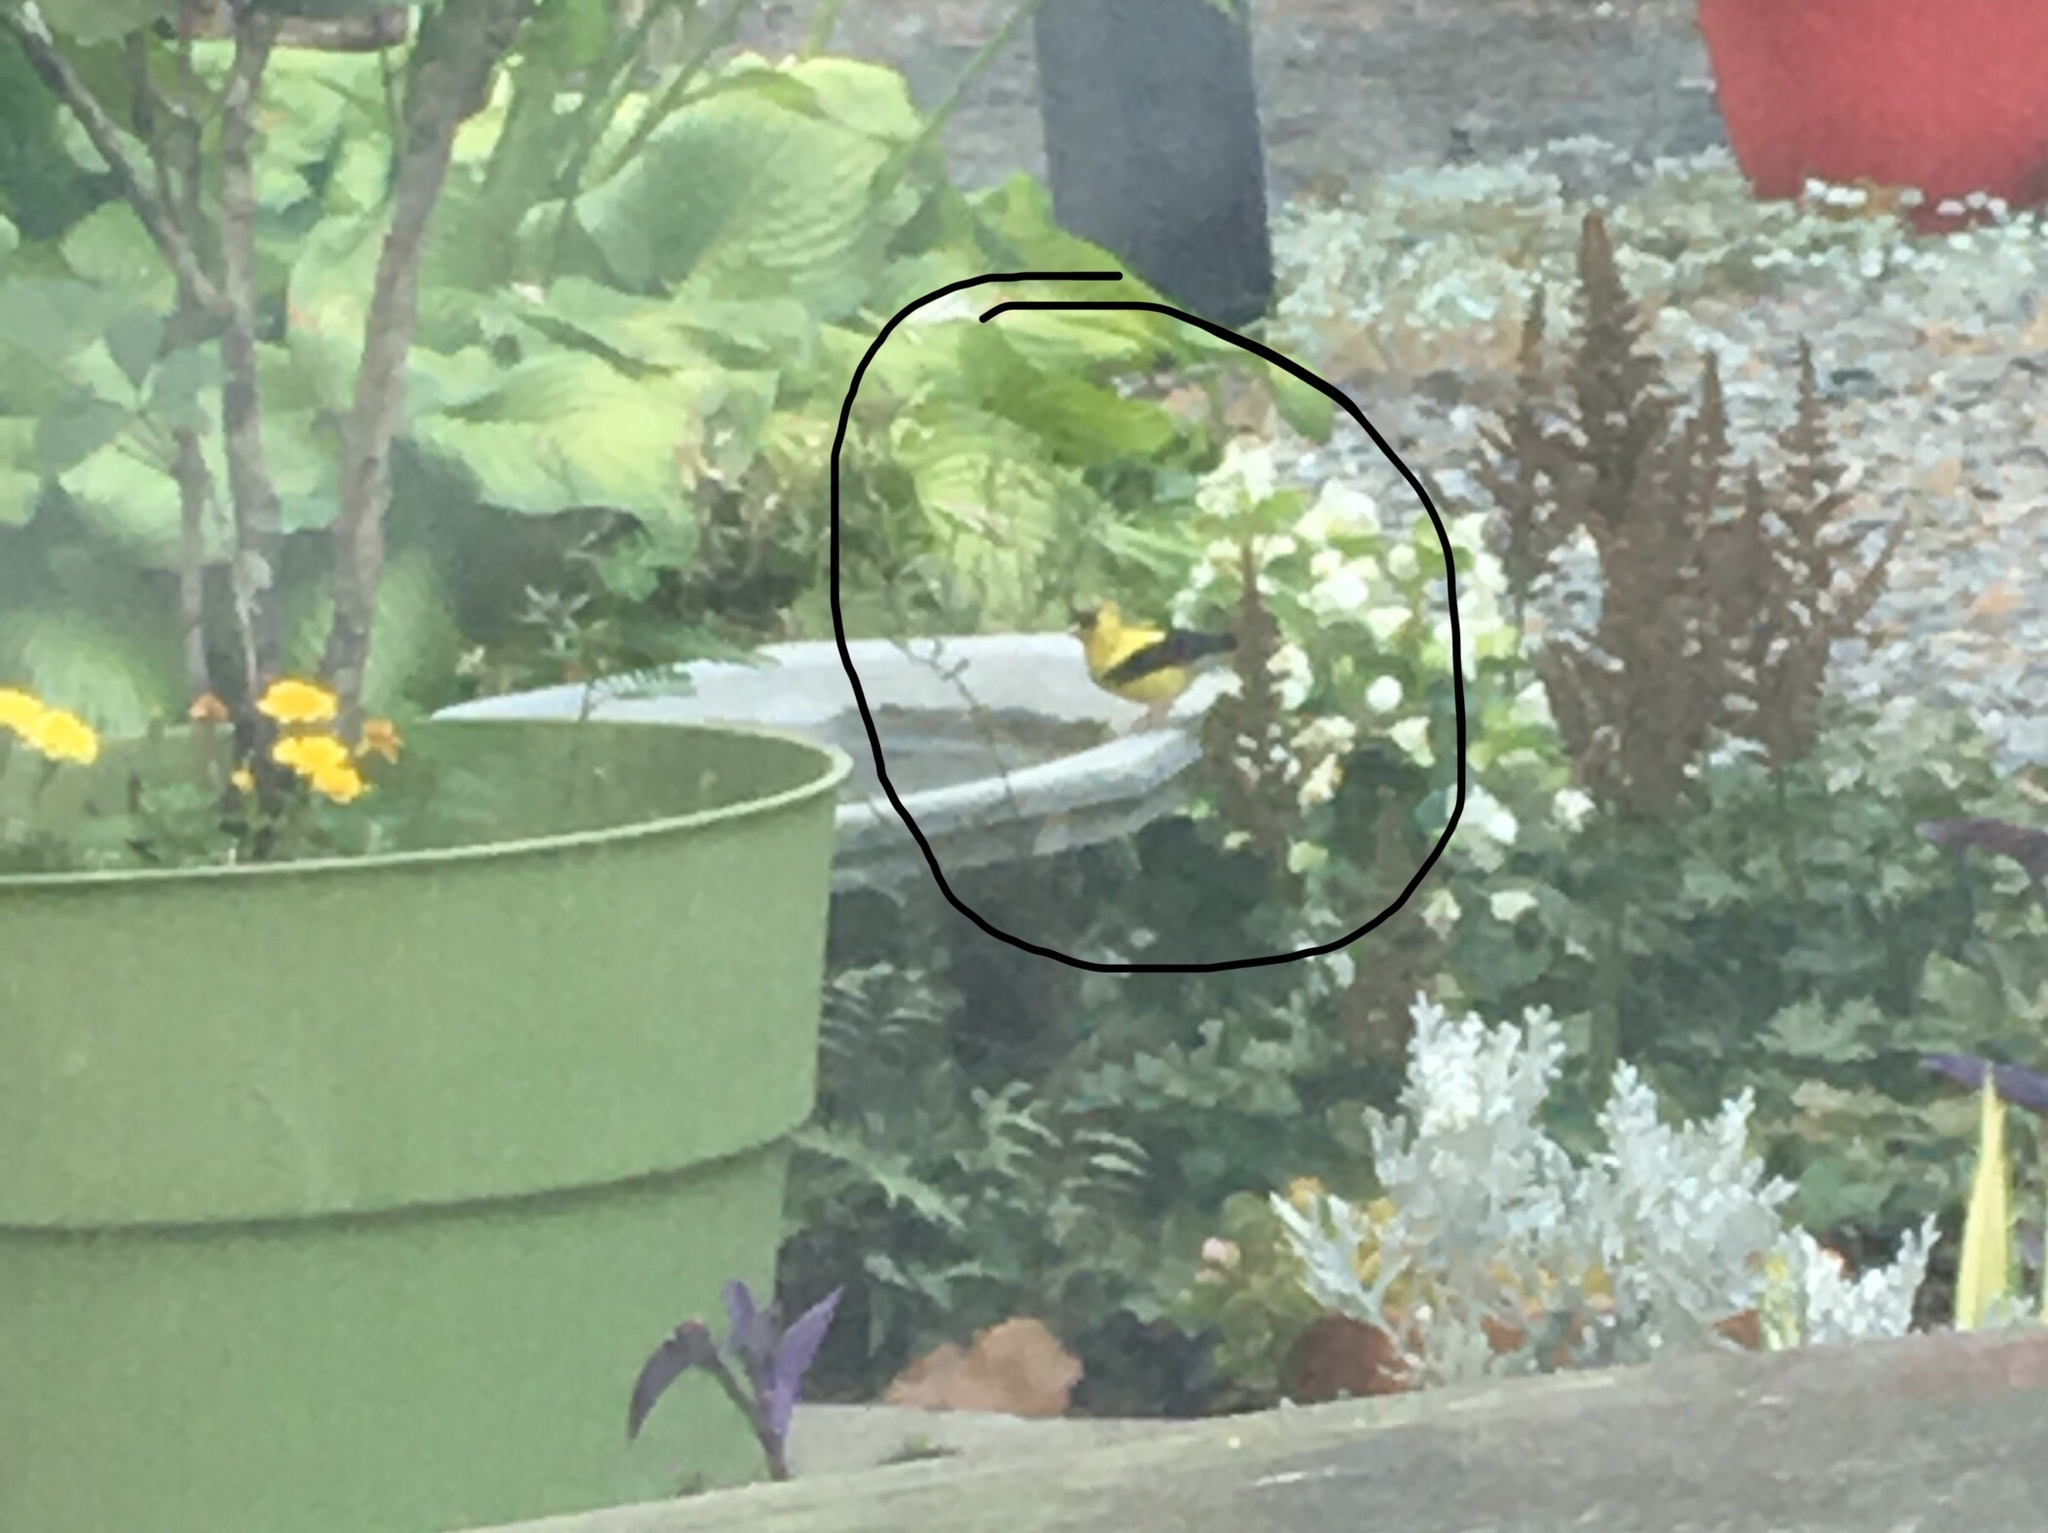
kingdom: Animalia
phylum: Chordata
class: Aves
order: Passeriformes
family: Fringillidae
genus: Spinus
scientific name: Spinus tristis
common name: American goldfinch
